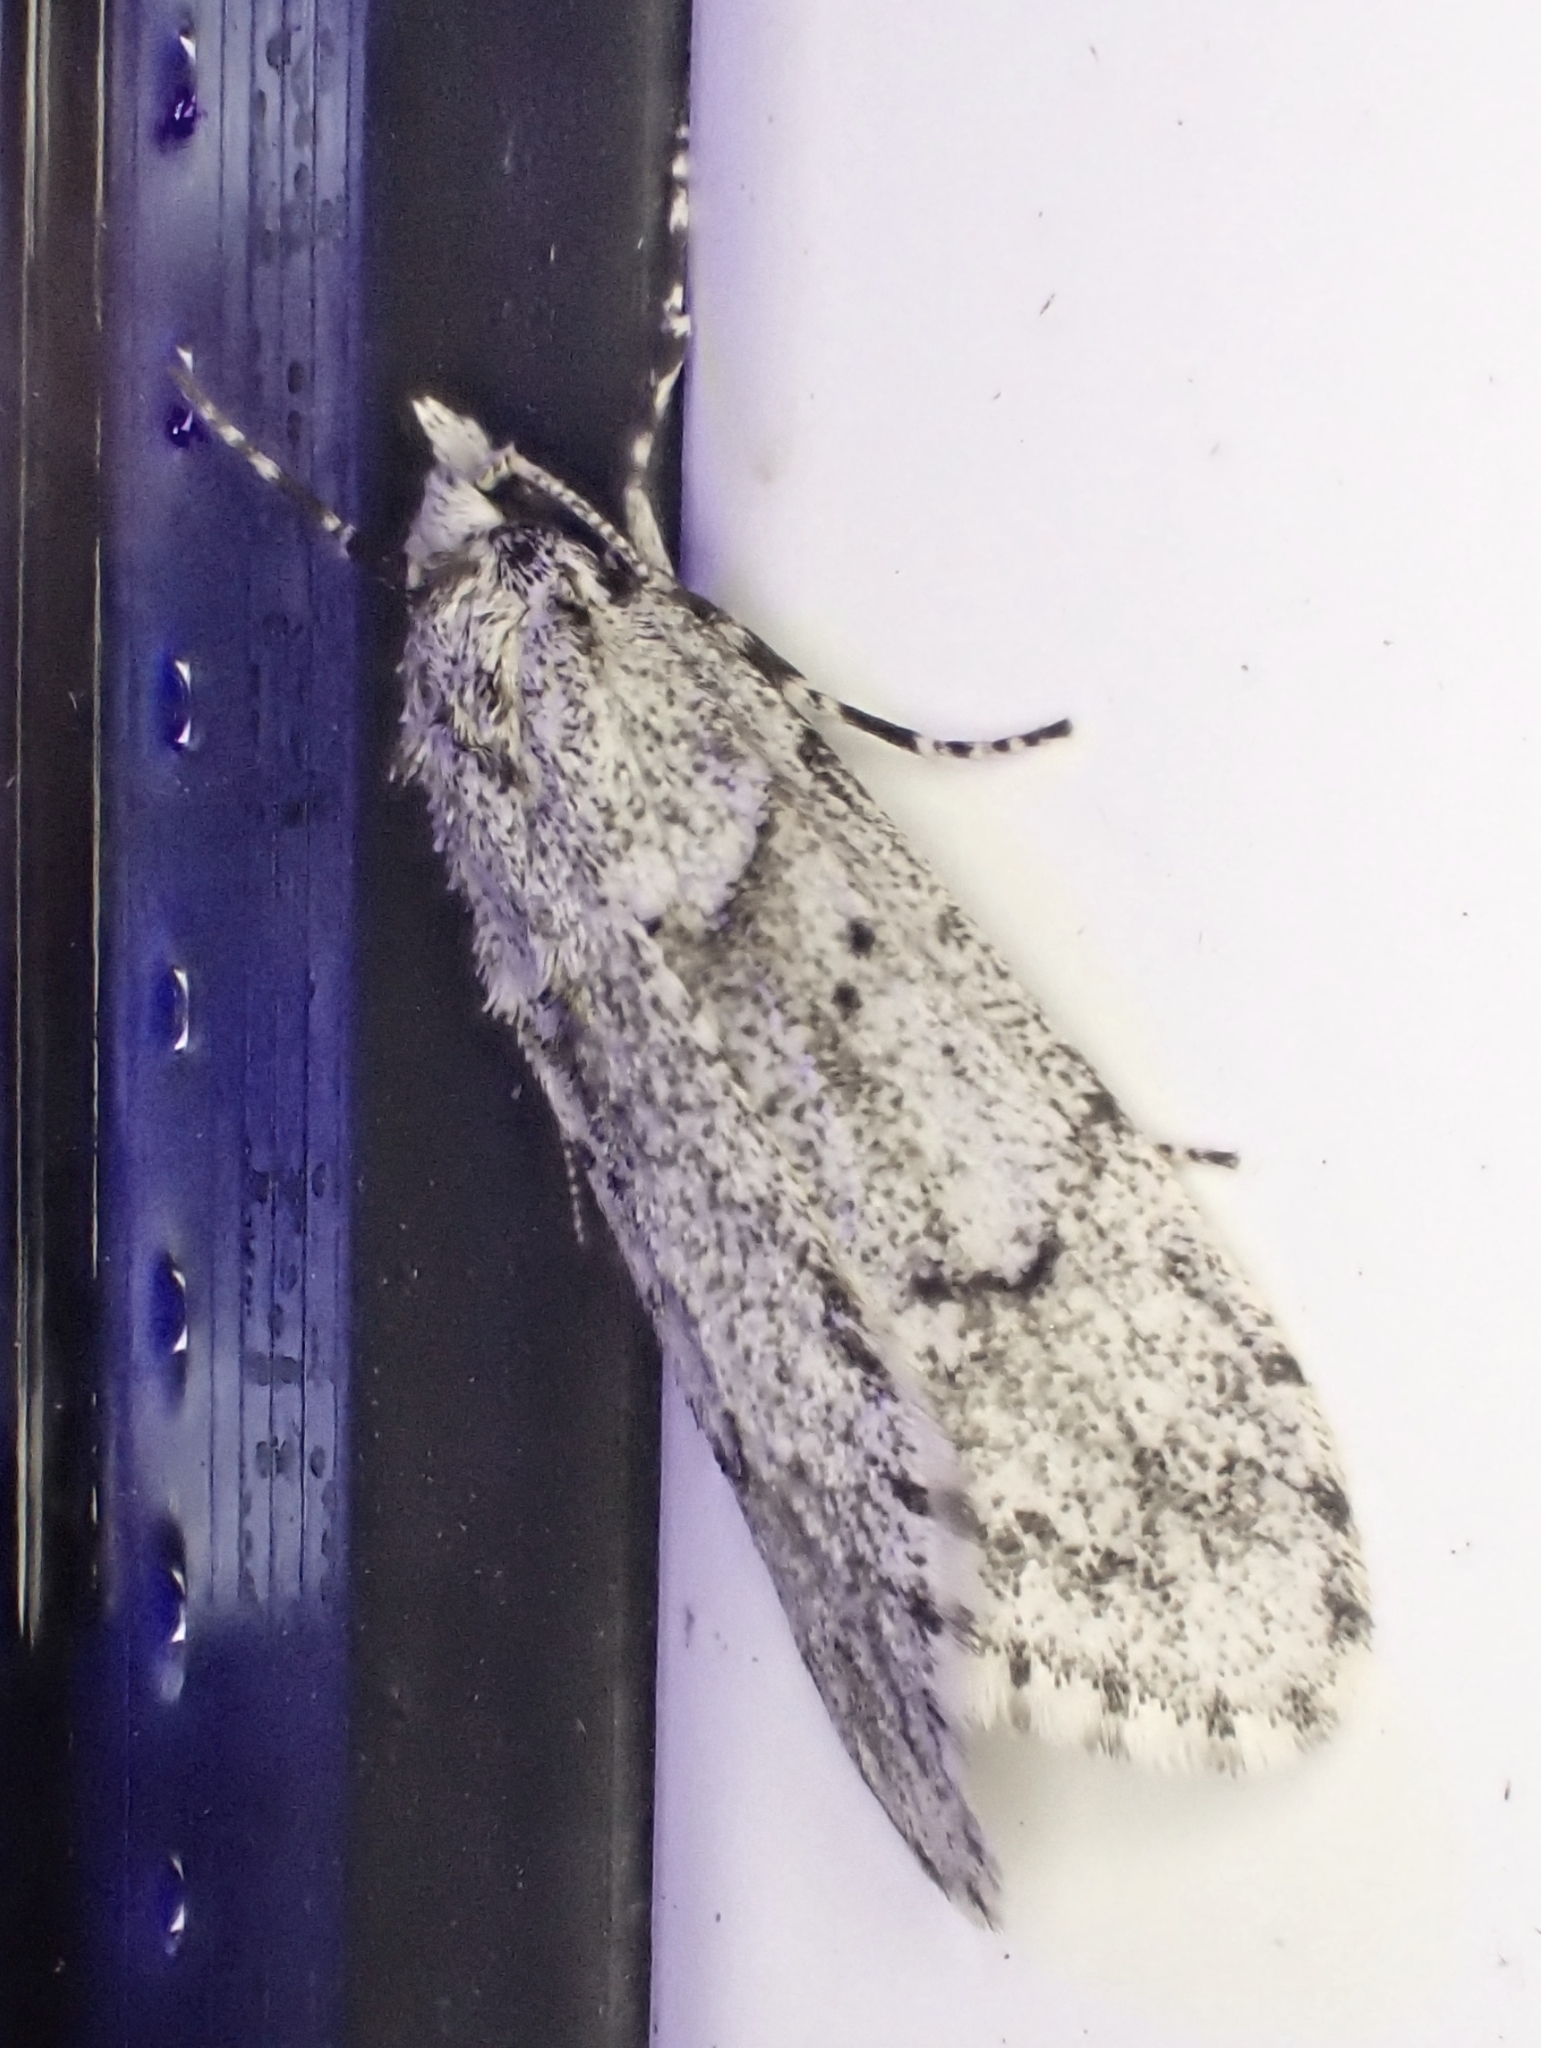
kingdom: Animalia
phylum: Arthropoda
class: Insecta
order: Lepidoptera
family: Lypusidae
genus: Diurnea
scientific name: Diurnea fagella
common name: March tubic
